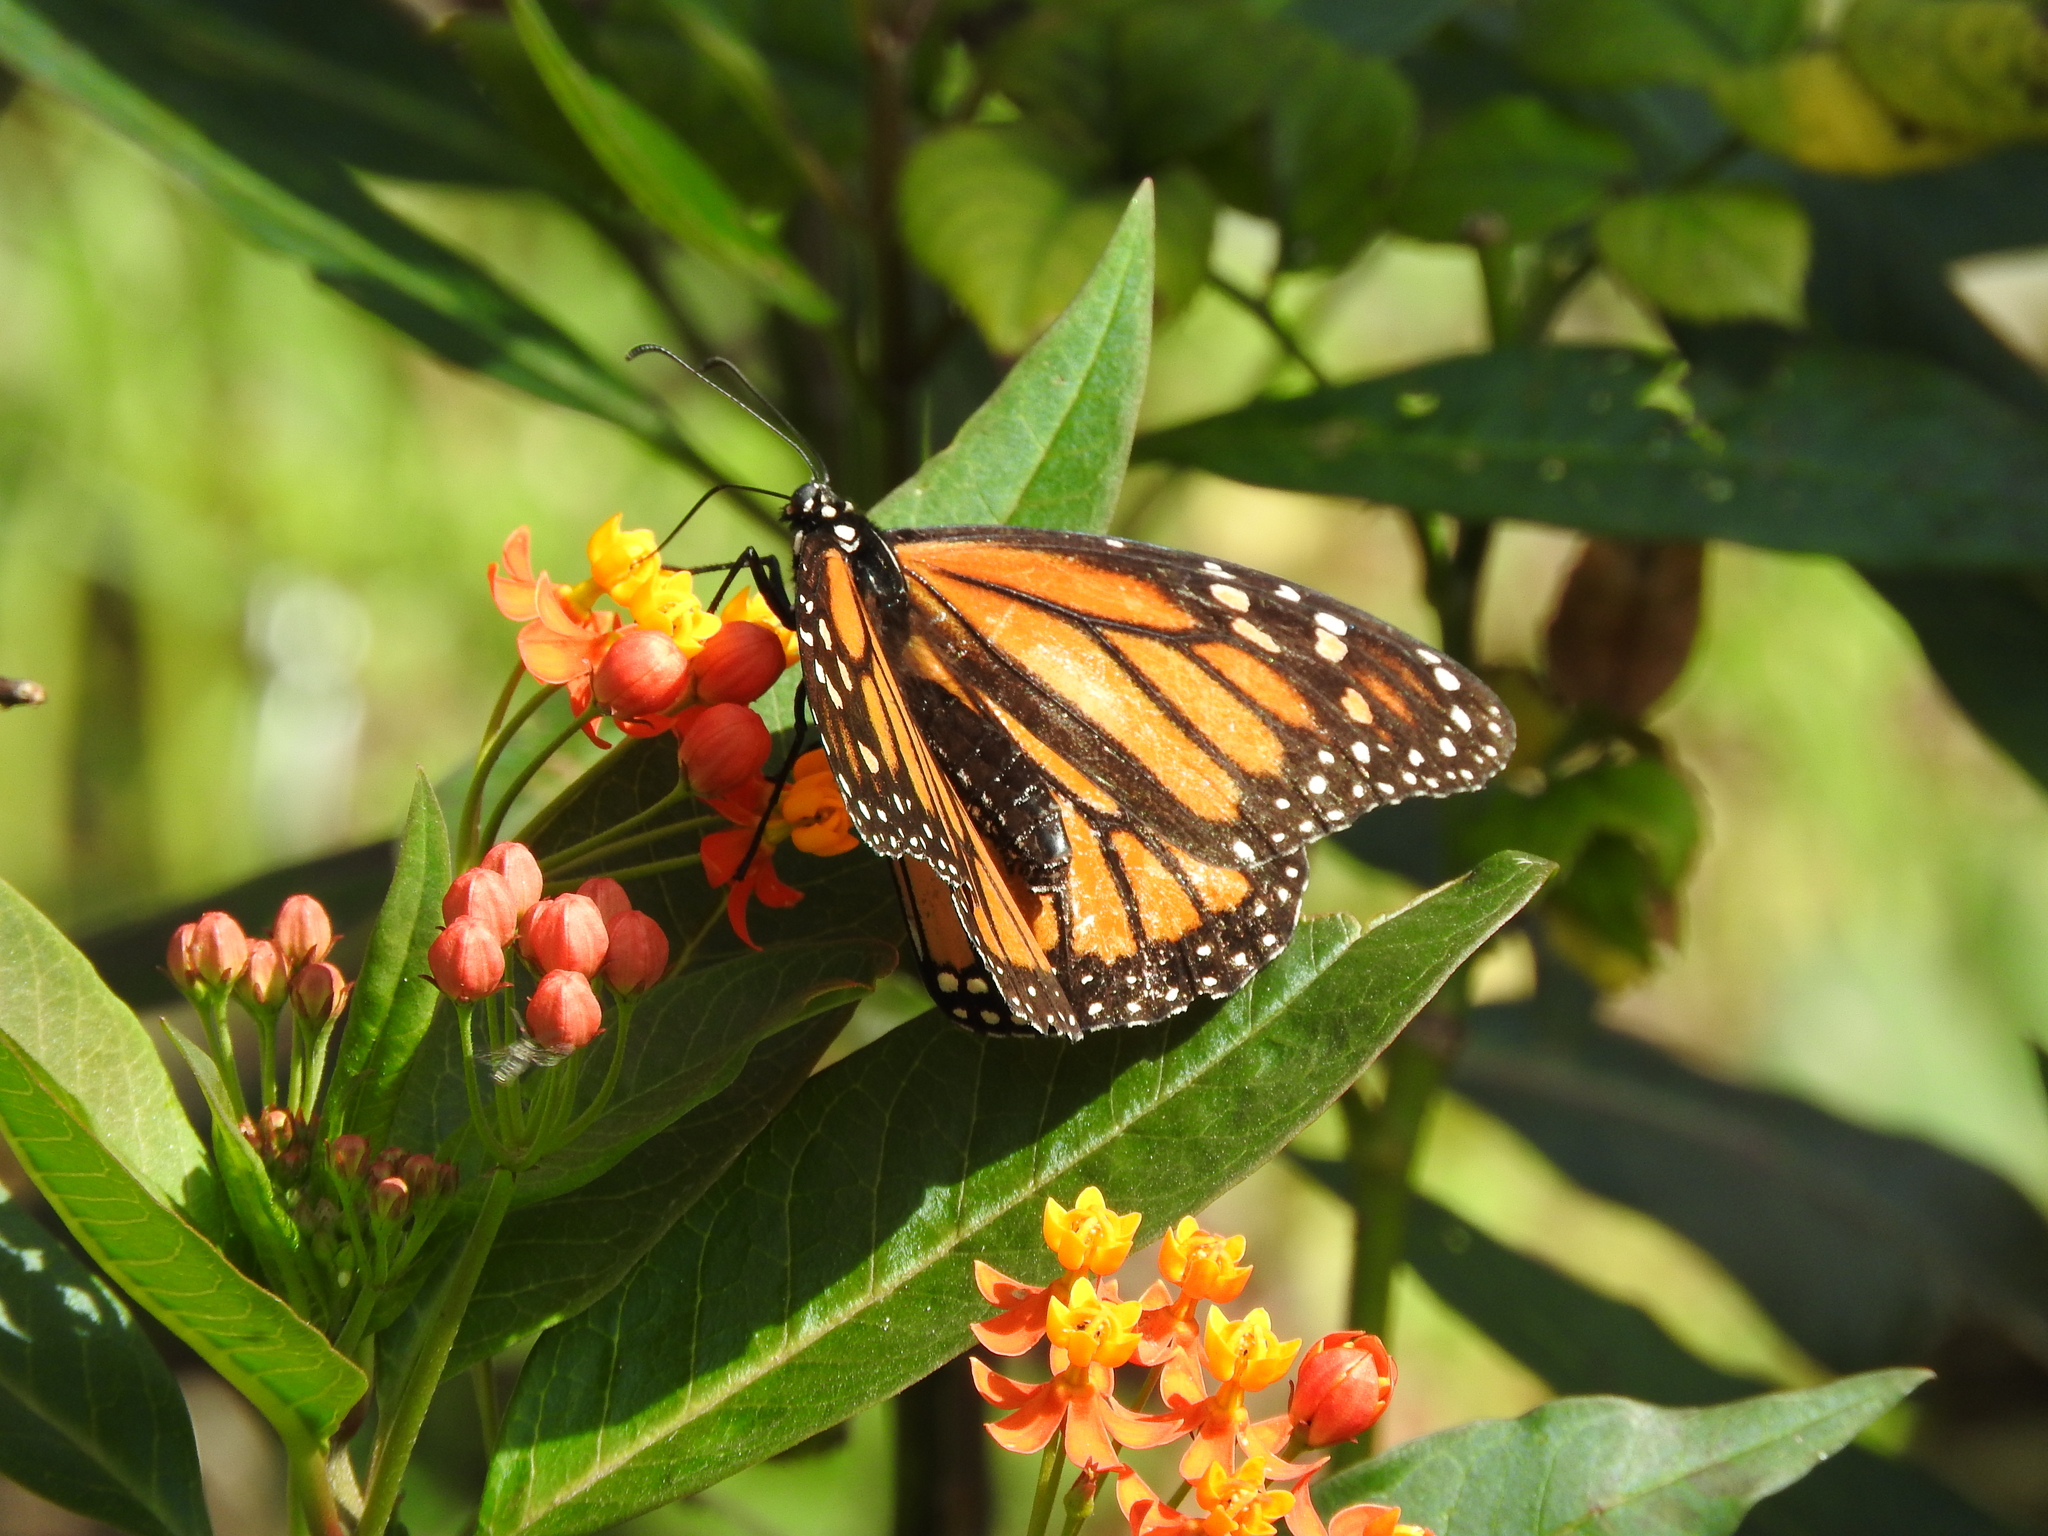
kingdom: Animalia
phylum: Arthropoda
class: Insecta
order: Lepidoptera
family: Nymphalidae
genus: Danaus
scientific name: Danaus plexippus
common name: Monarch
